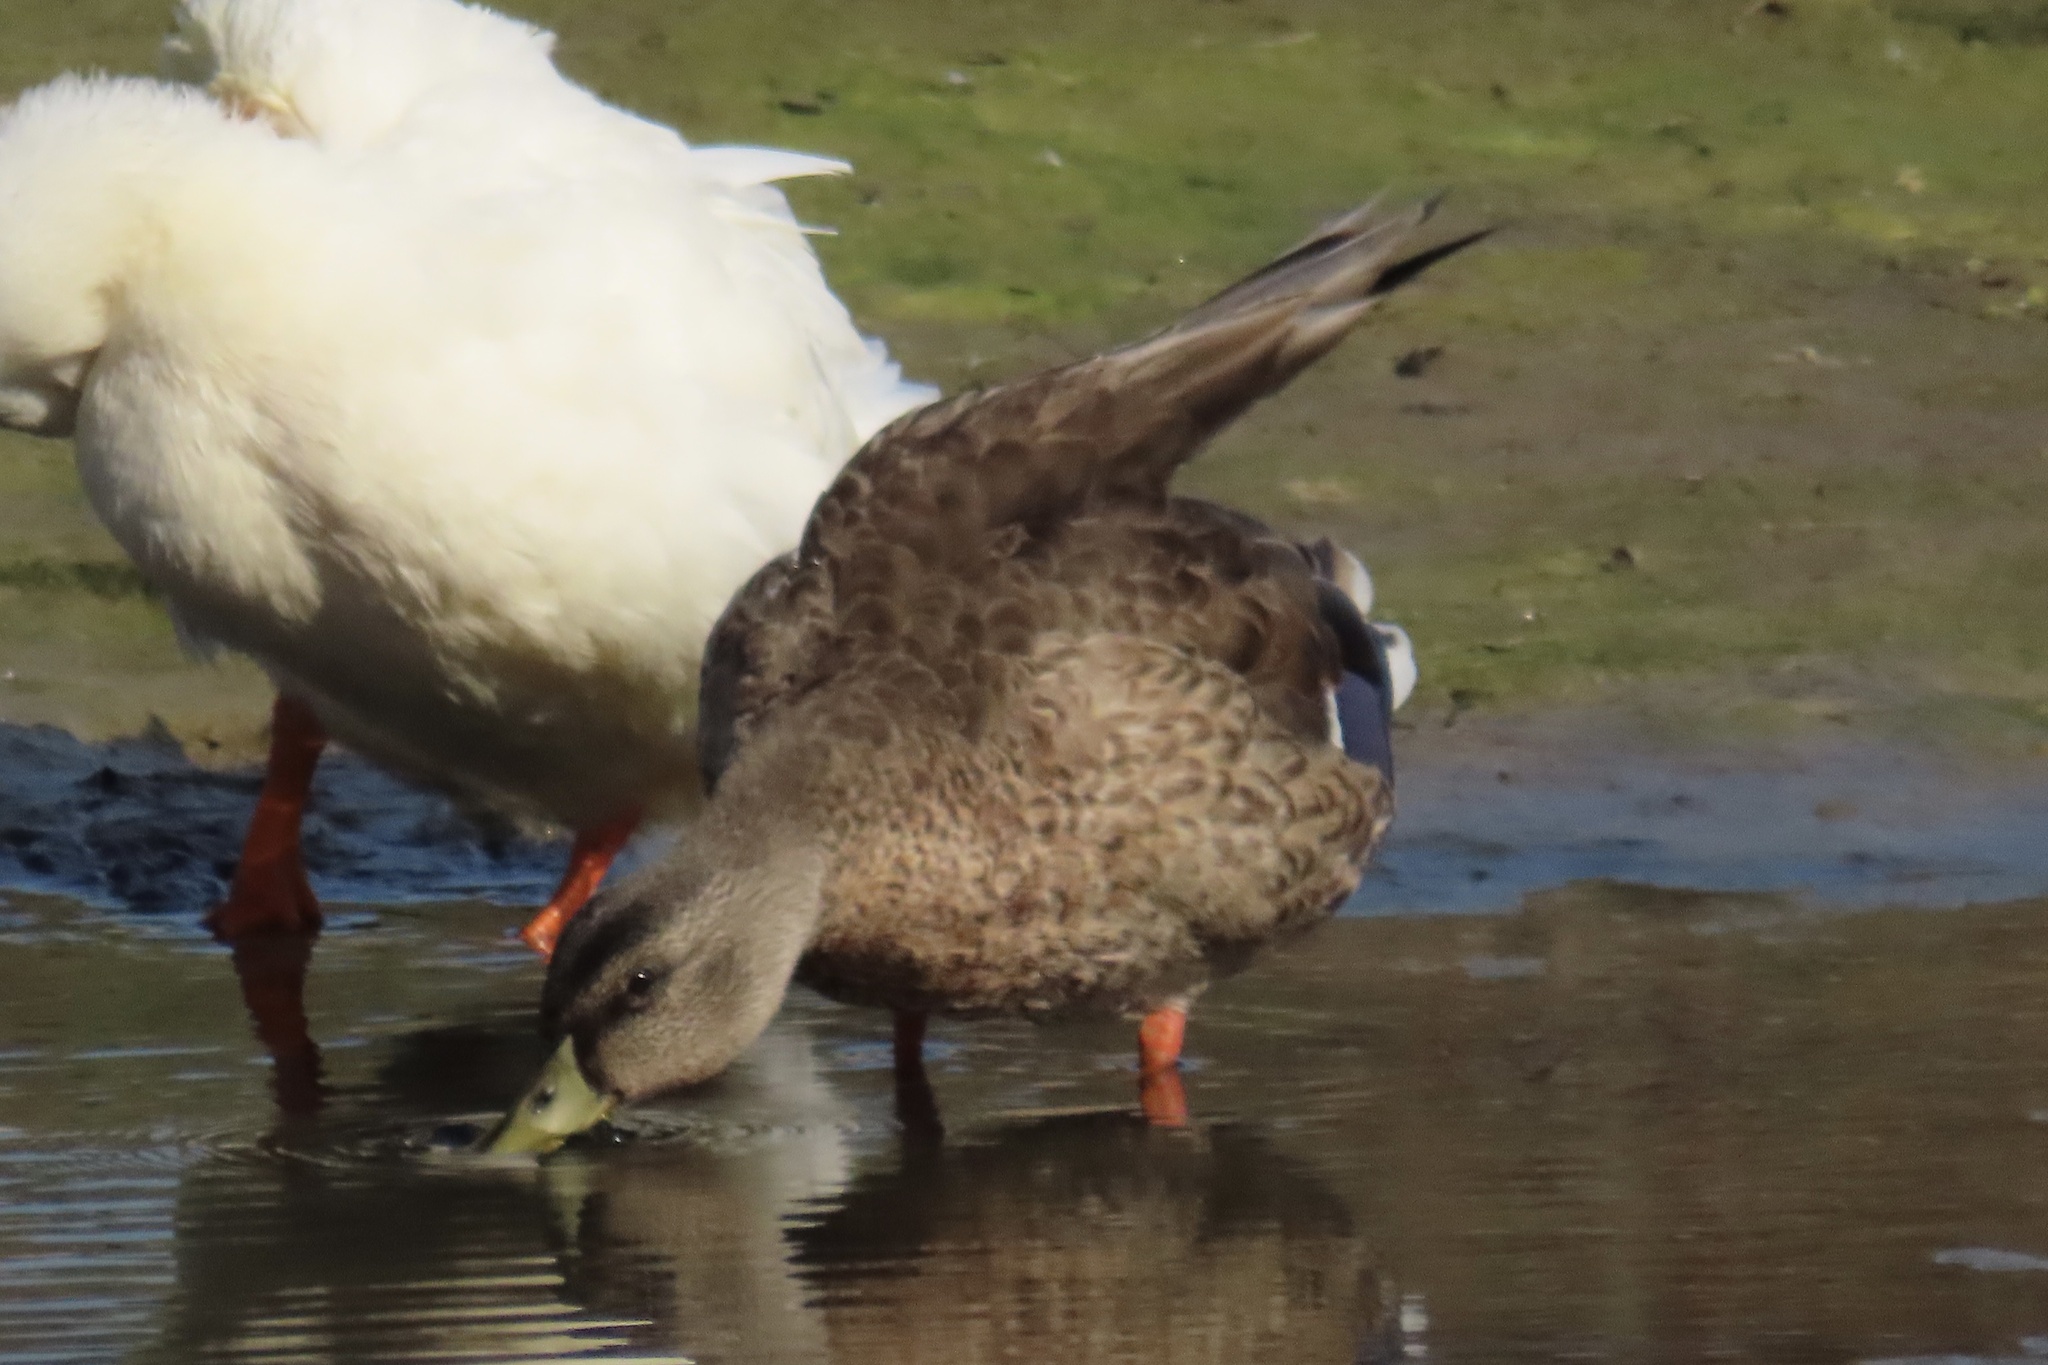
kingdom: Animalia
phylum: Chordata
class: Aves
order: Anseriformes
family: Anatidae
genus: Anas
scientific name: Anas platyrhynchos
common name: Mallard
